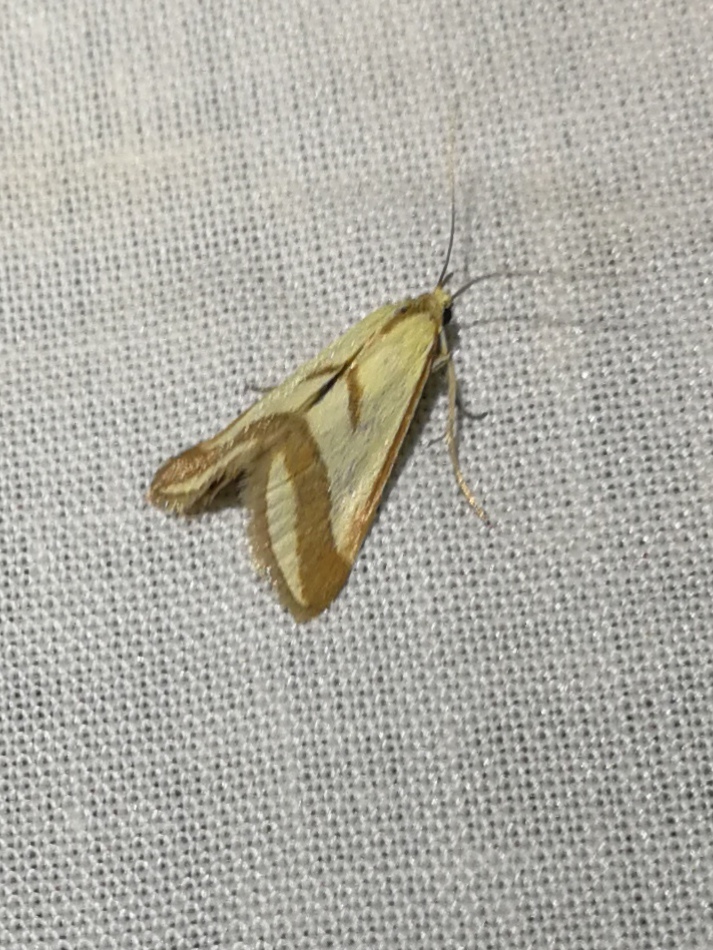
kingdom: Animalia
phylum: Arthropoda
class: Insecta
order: Lepidoptera
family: Crambidae
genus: Ephelis
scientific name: Ephelis pudicalis
